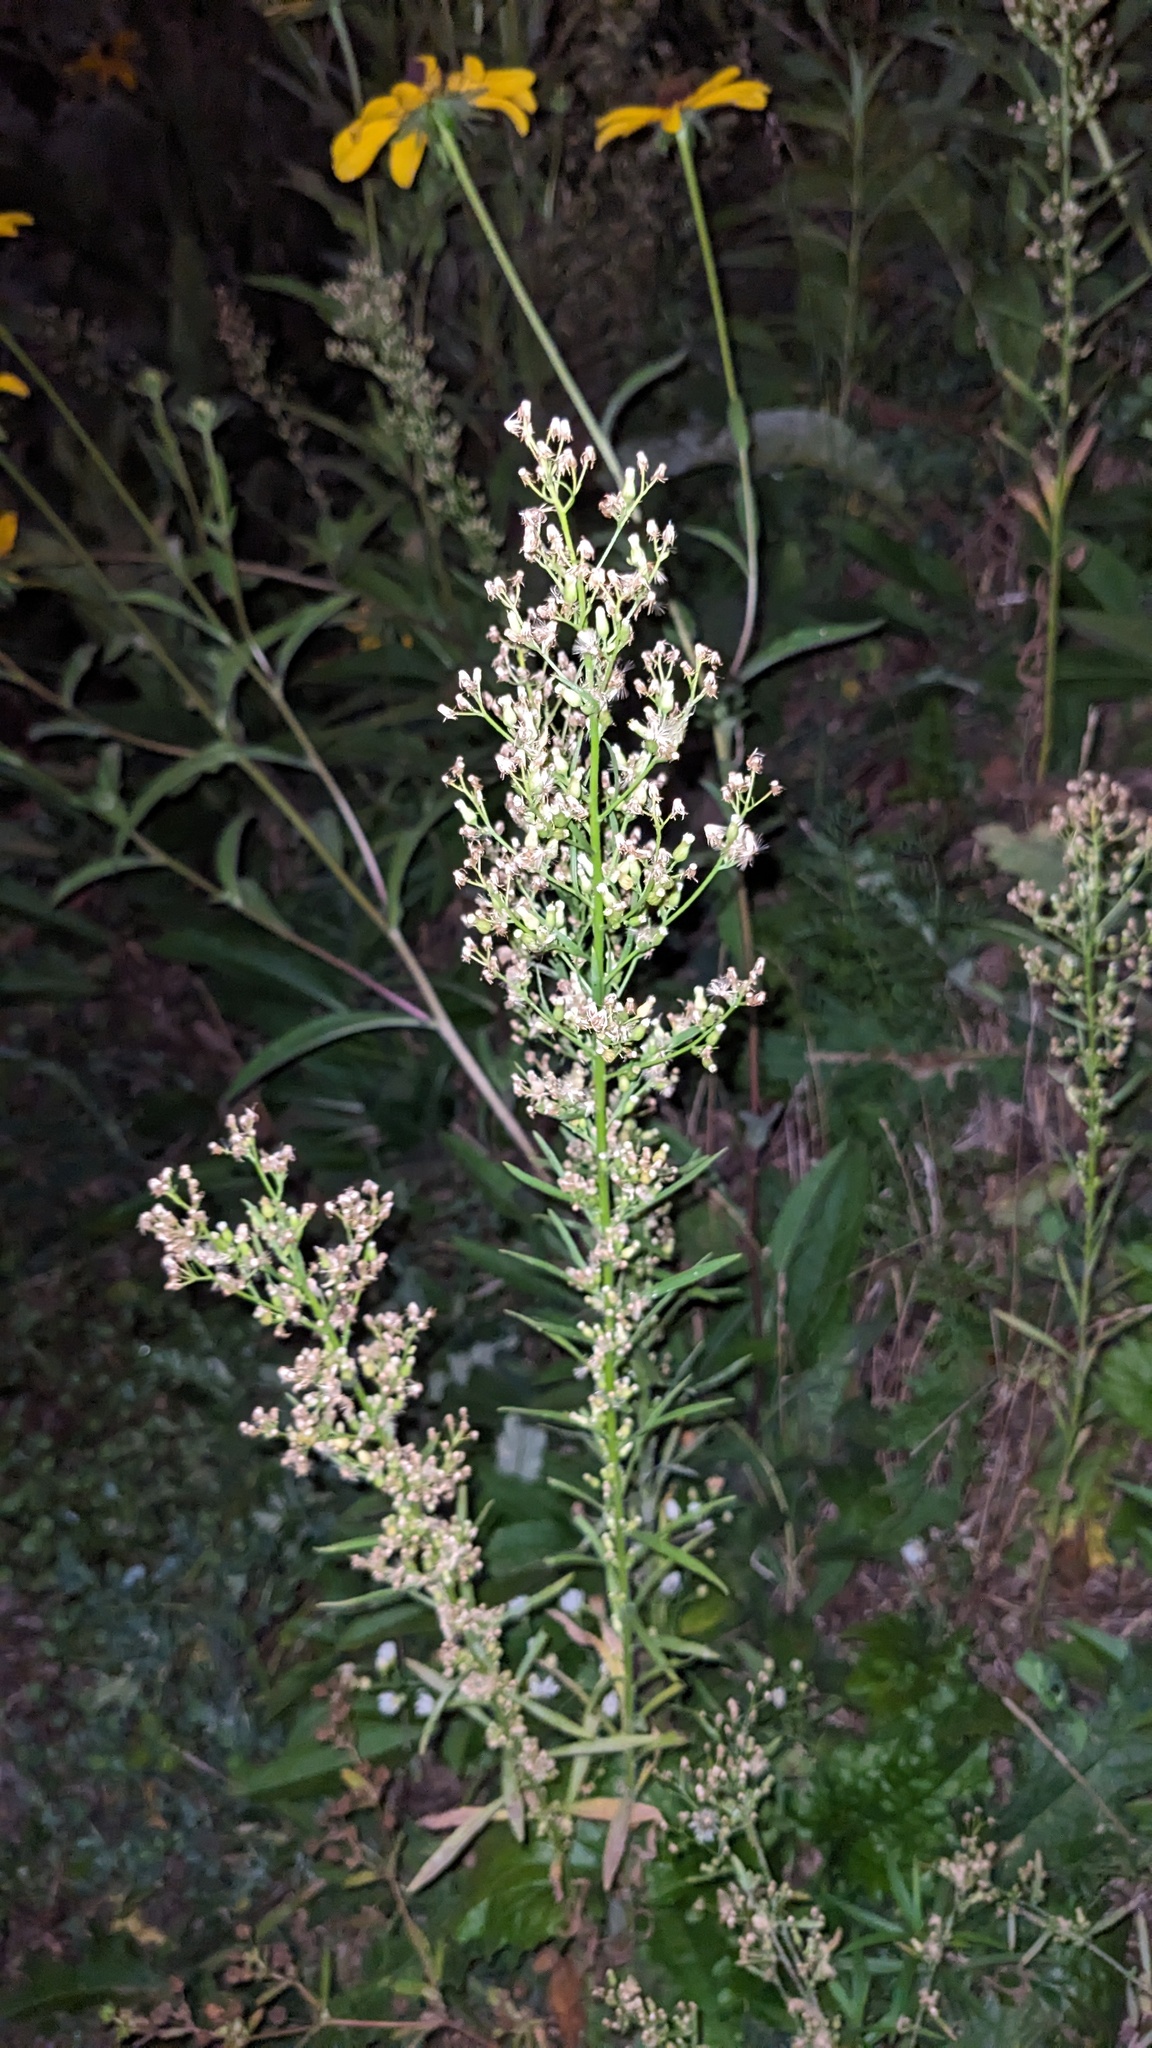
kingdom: Plantae
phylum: Tracheophyta
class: Magnoliopsida
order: Asterales
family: Asteraceae
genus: Erigeron
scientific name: Erigeron canadensis
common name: Canadian fleabane
